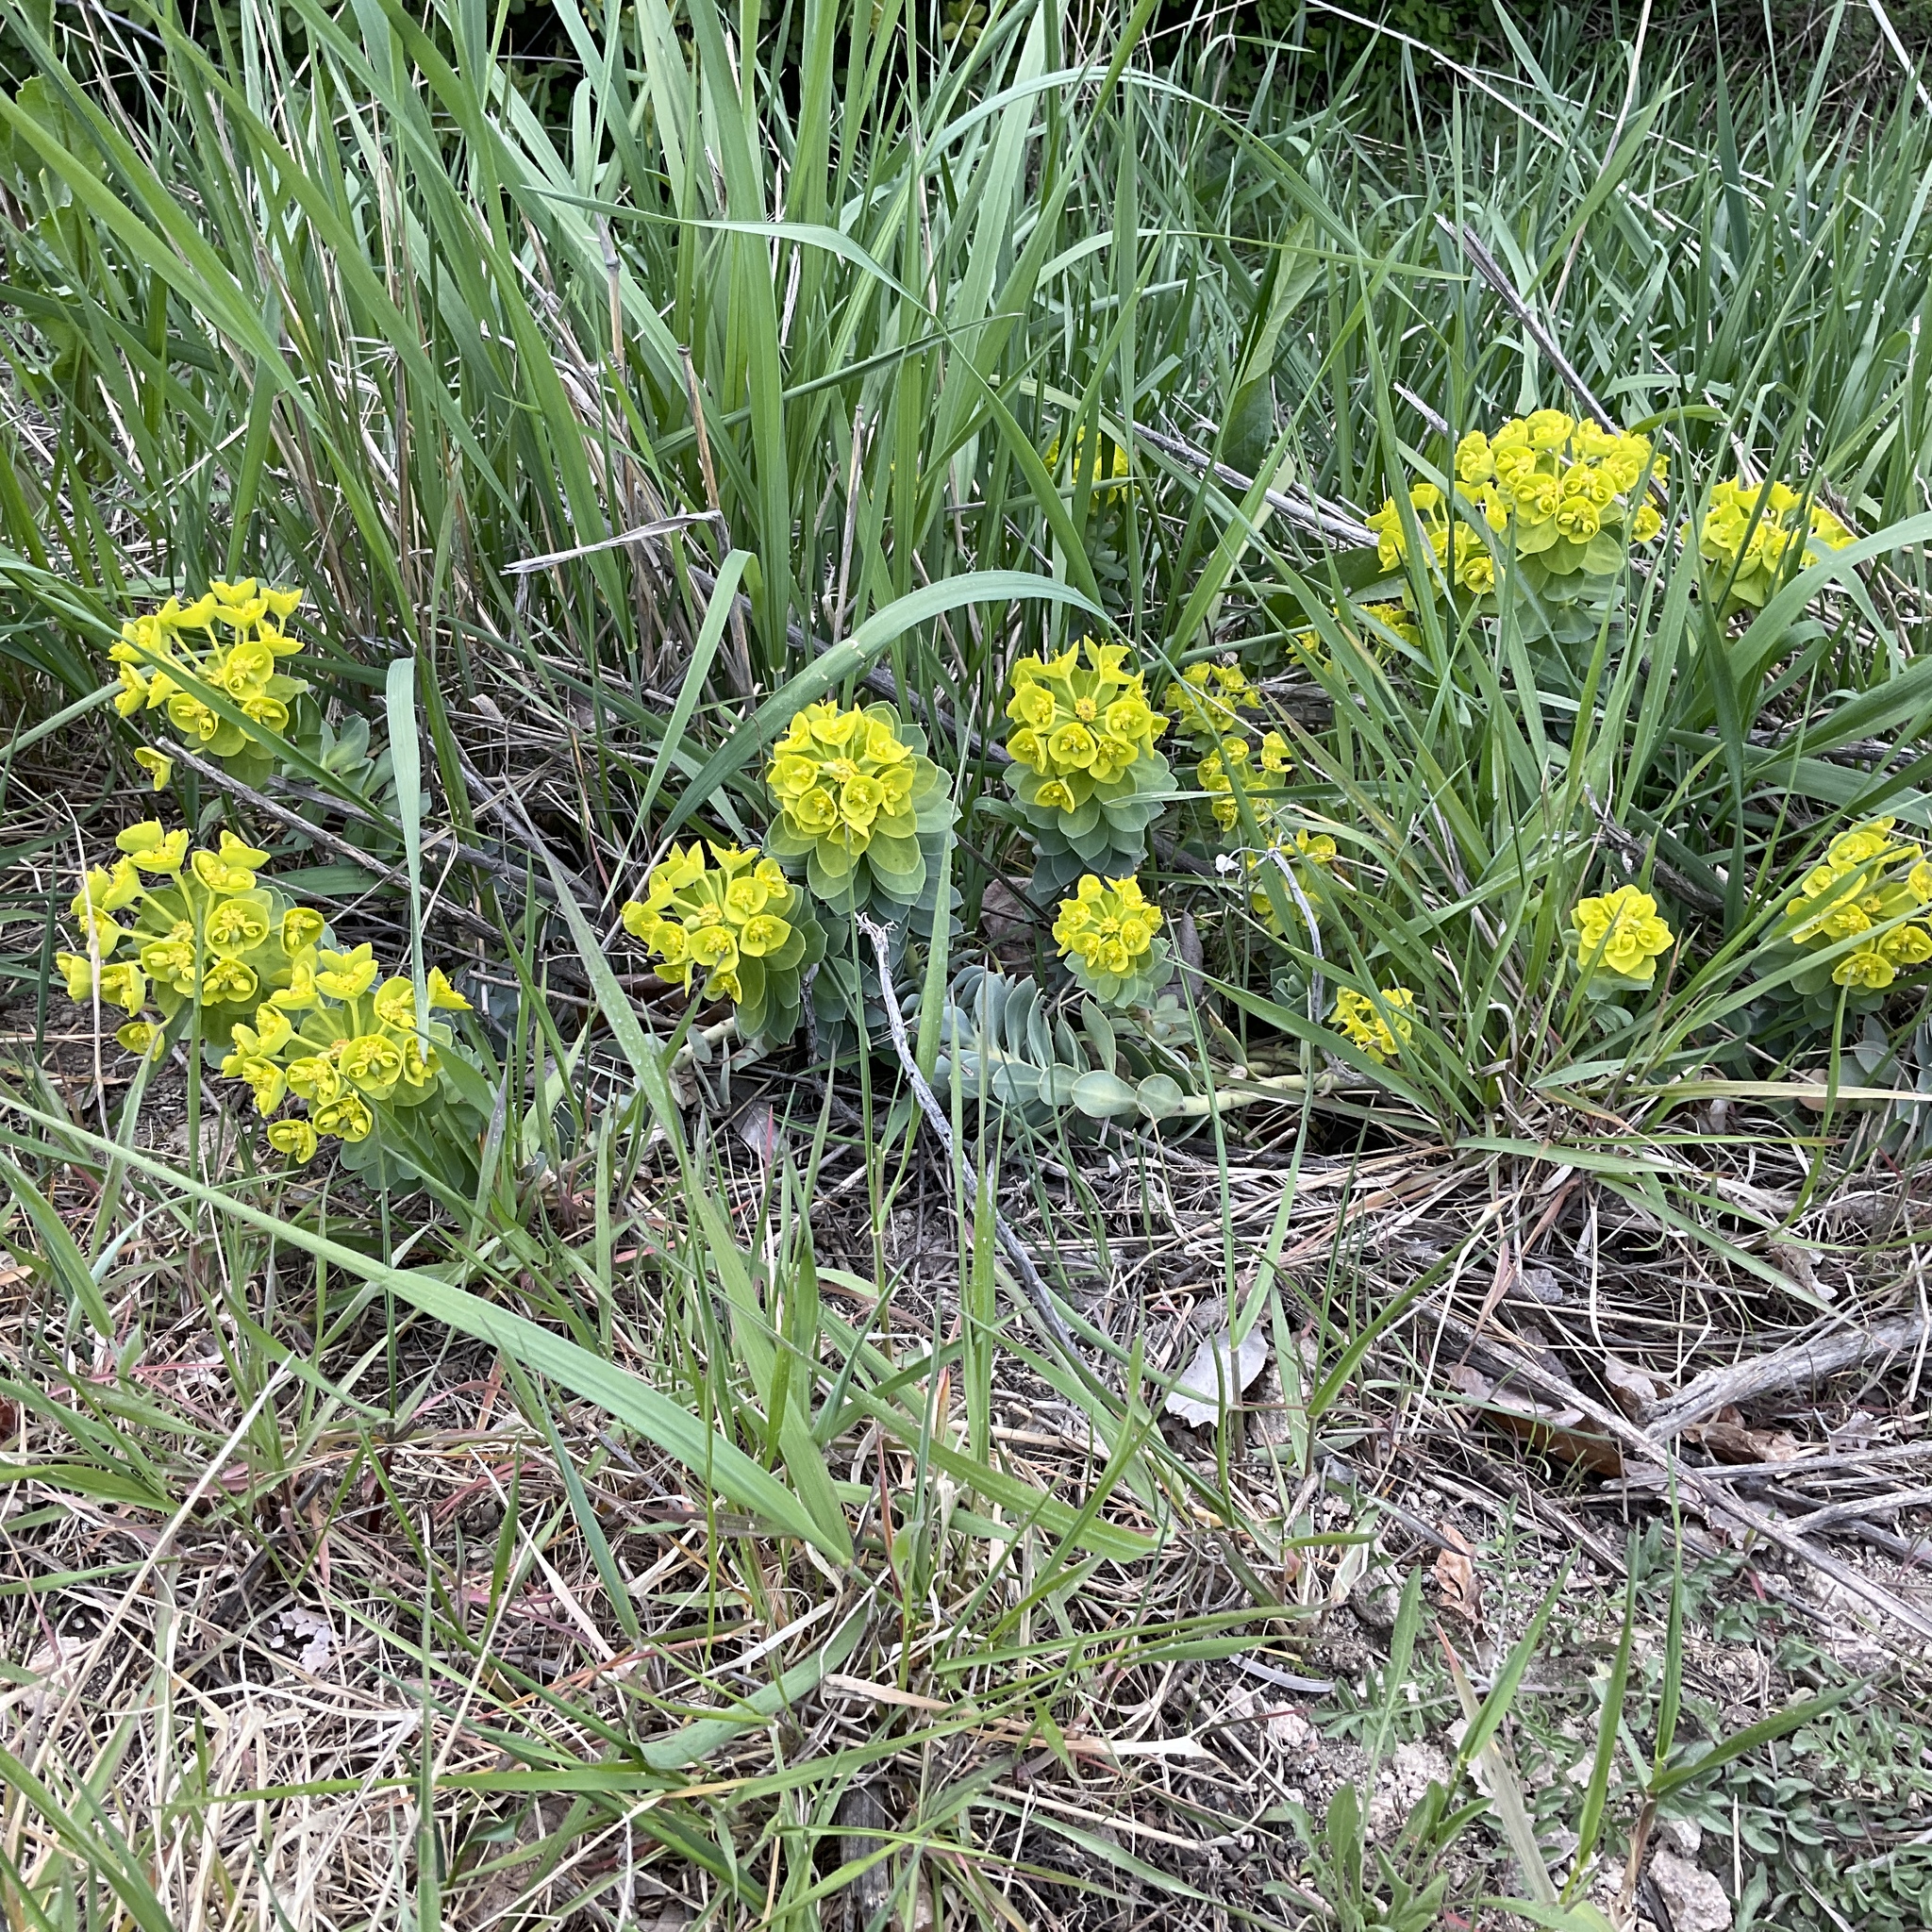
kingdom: Plantae
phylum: Tracheophyta
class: Magnoliopsida
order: Malpighiales
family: Euphorbiaceae
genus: Euphorbia
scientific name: Euphorbia myrsinites
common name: Myrtle spurge
